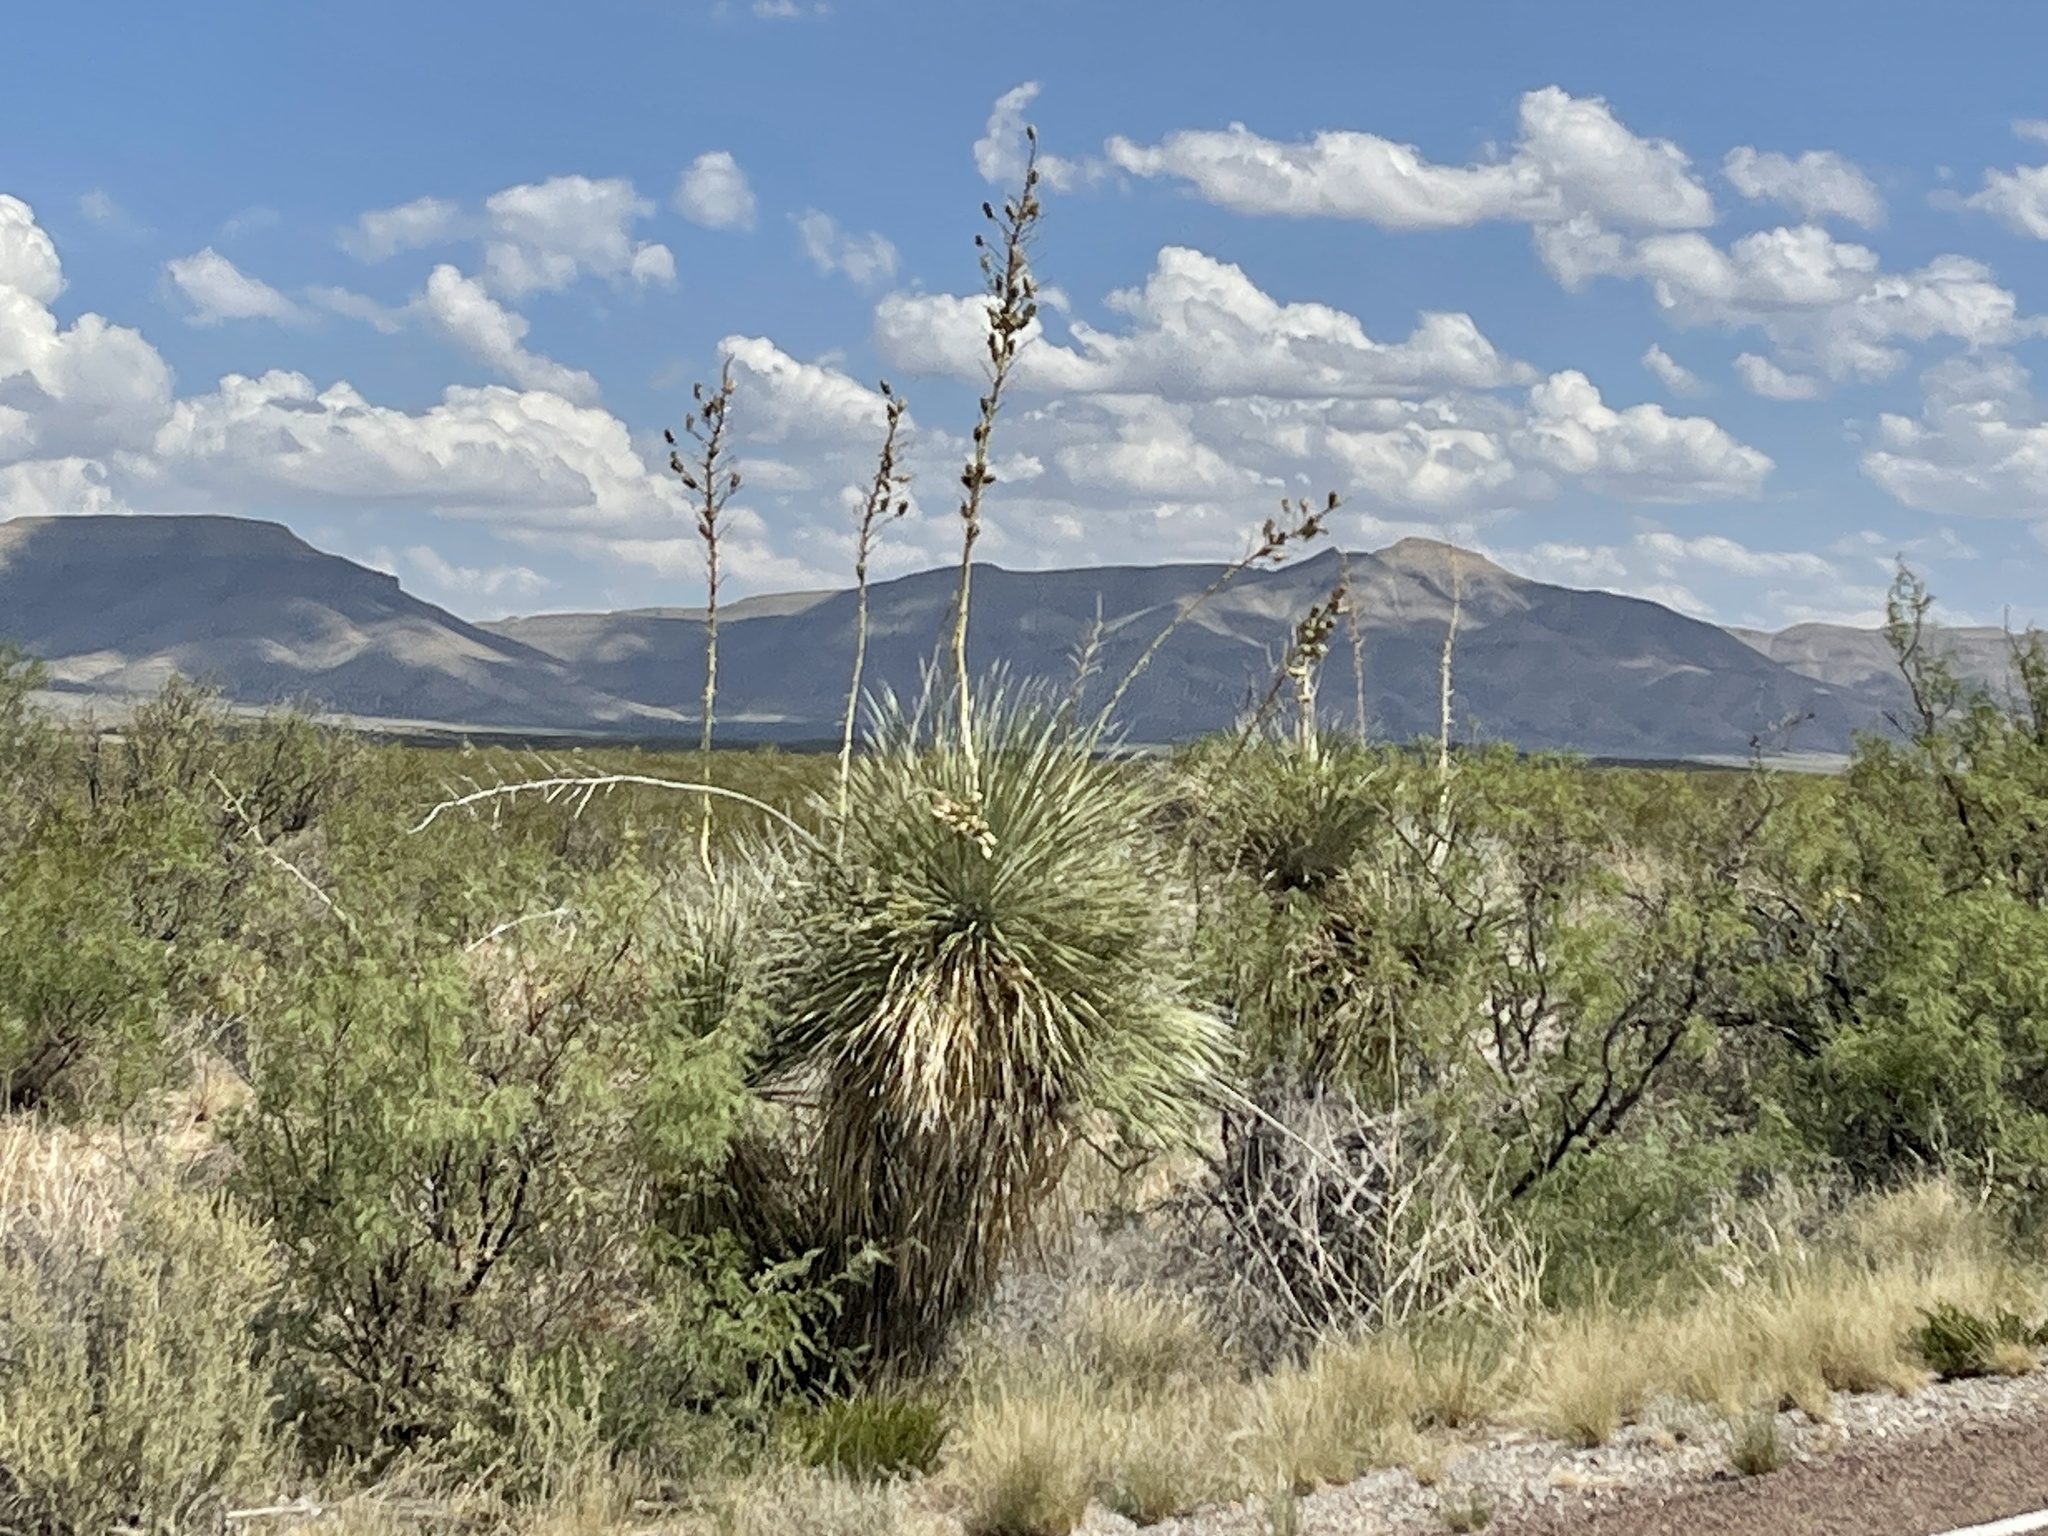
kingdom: Plantae
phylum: Tracheophyta
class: Liliopsida
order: Asparagales
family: Asparagaceae
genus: Yucca
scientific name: Yucca elata
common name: Palmella
